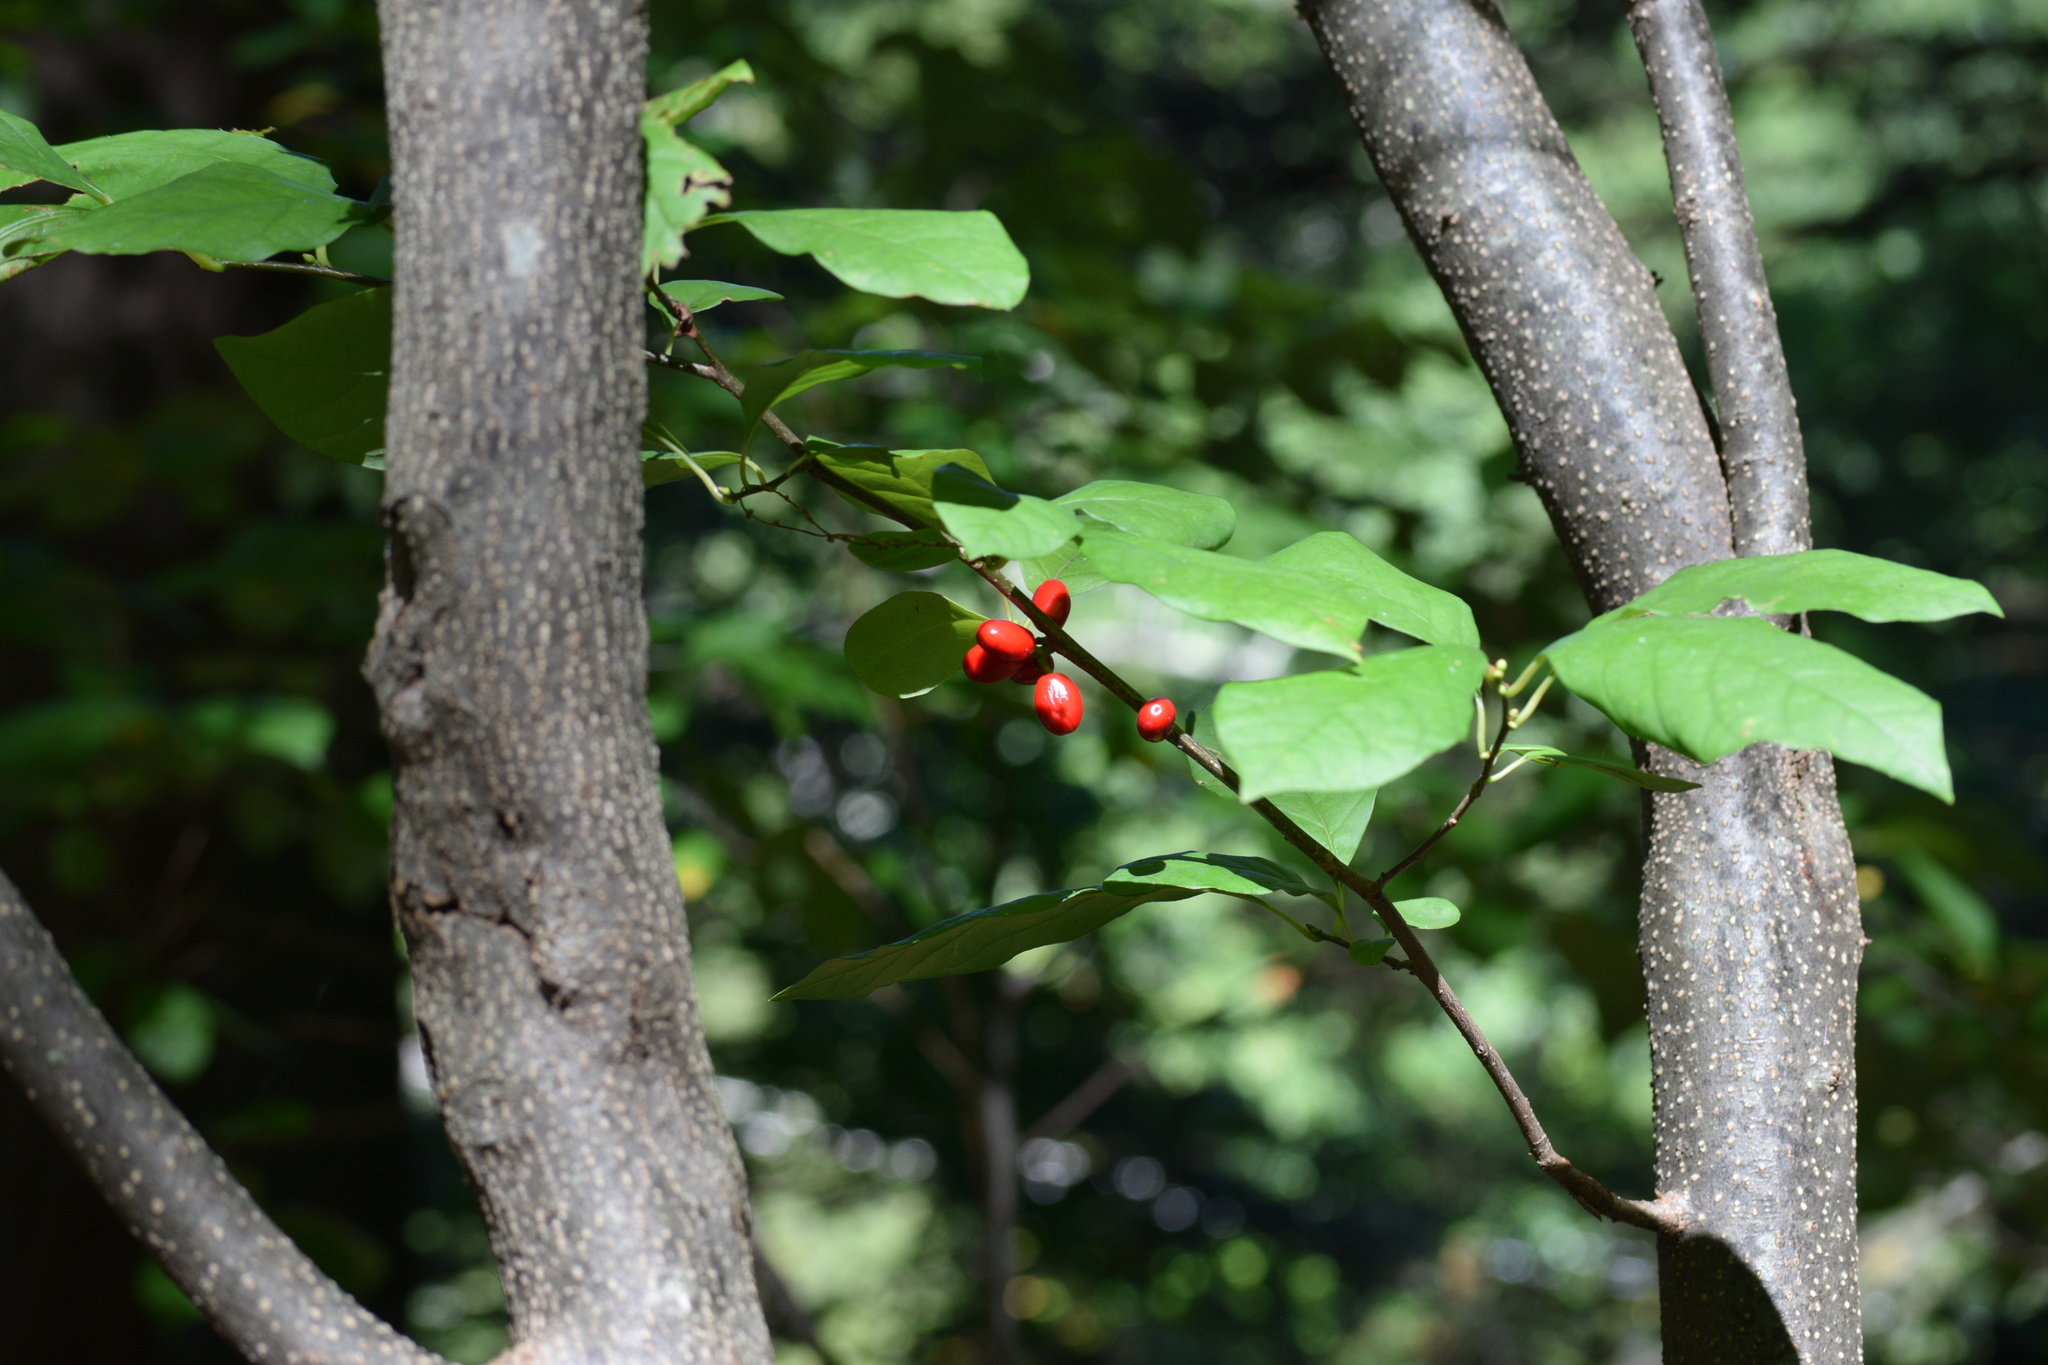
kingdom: Plantae
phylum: Tracheophyta
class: Magnoliopsida
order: Laurales
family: Lauraceae
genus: Lindera
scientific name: Lindera benzoin
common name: Spicebush
